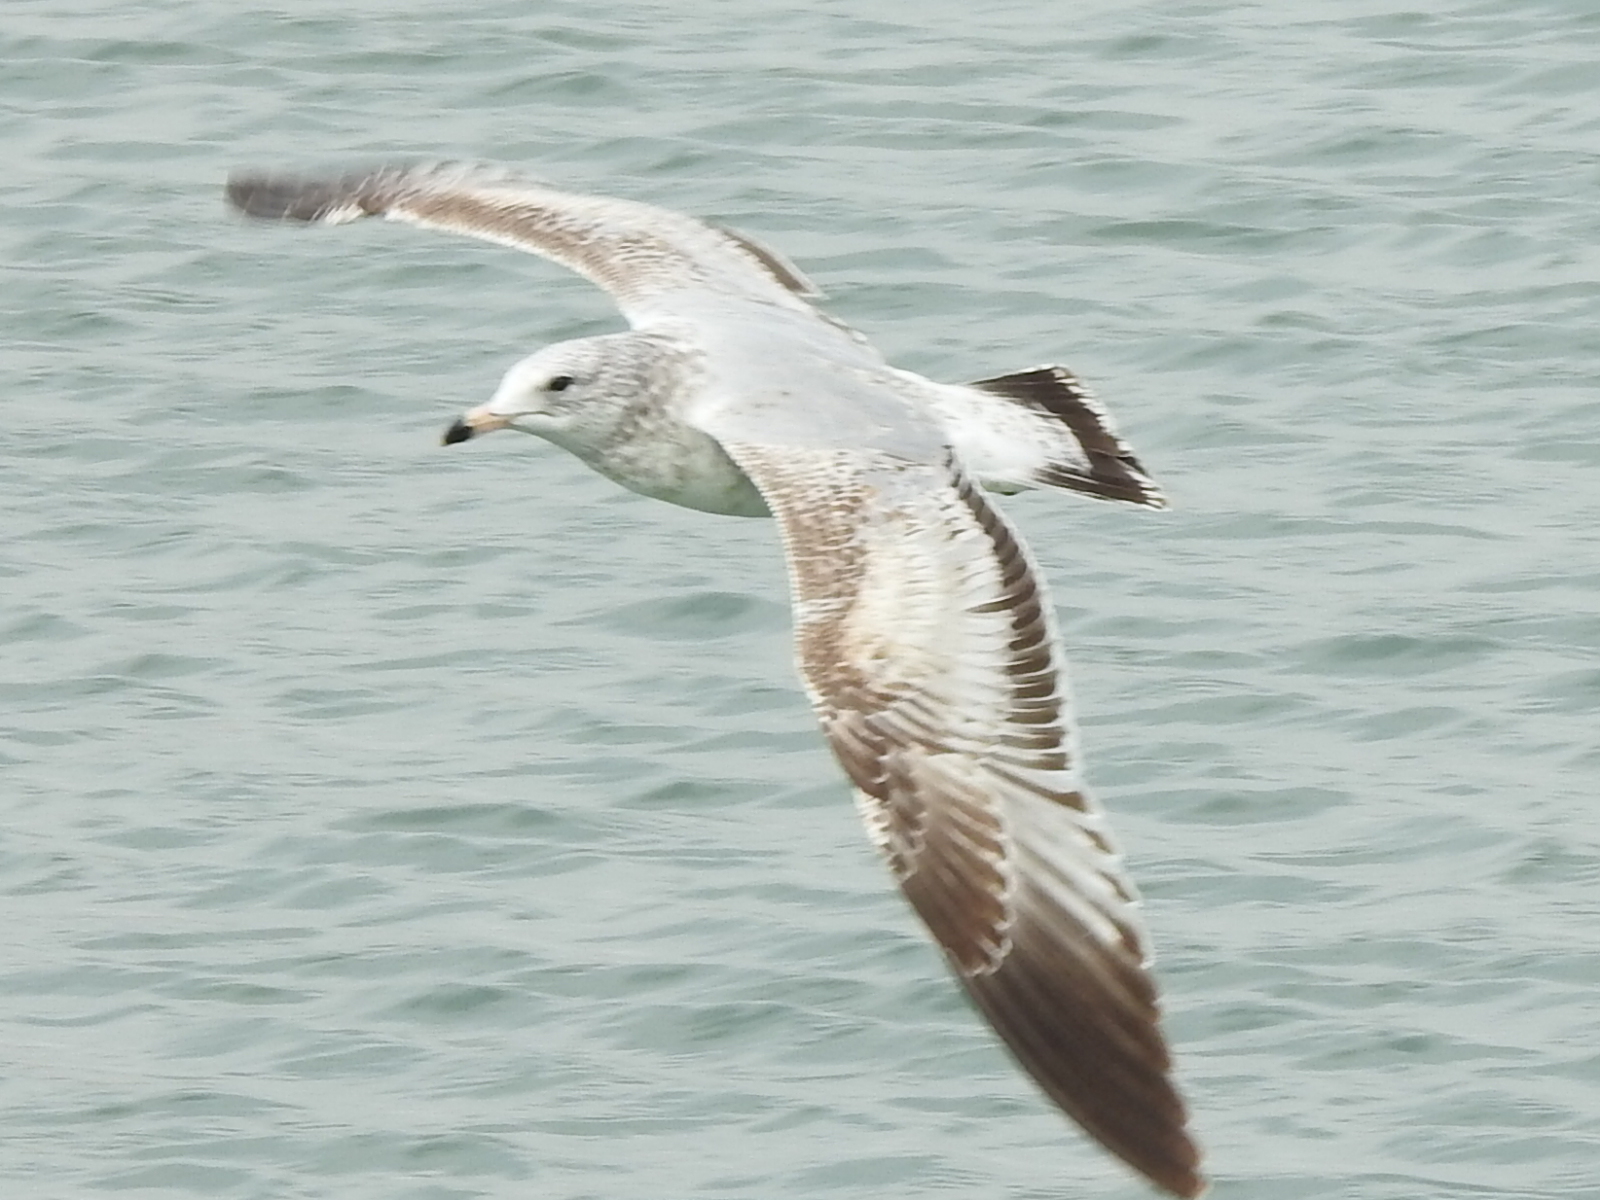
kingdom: Animalia
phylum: Chordata
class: Aves
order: Charadriiformes
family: Laridae
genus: Larus
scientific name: Larus delawarensis
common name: Ring-billed gull
